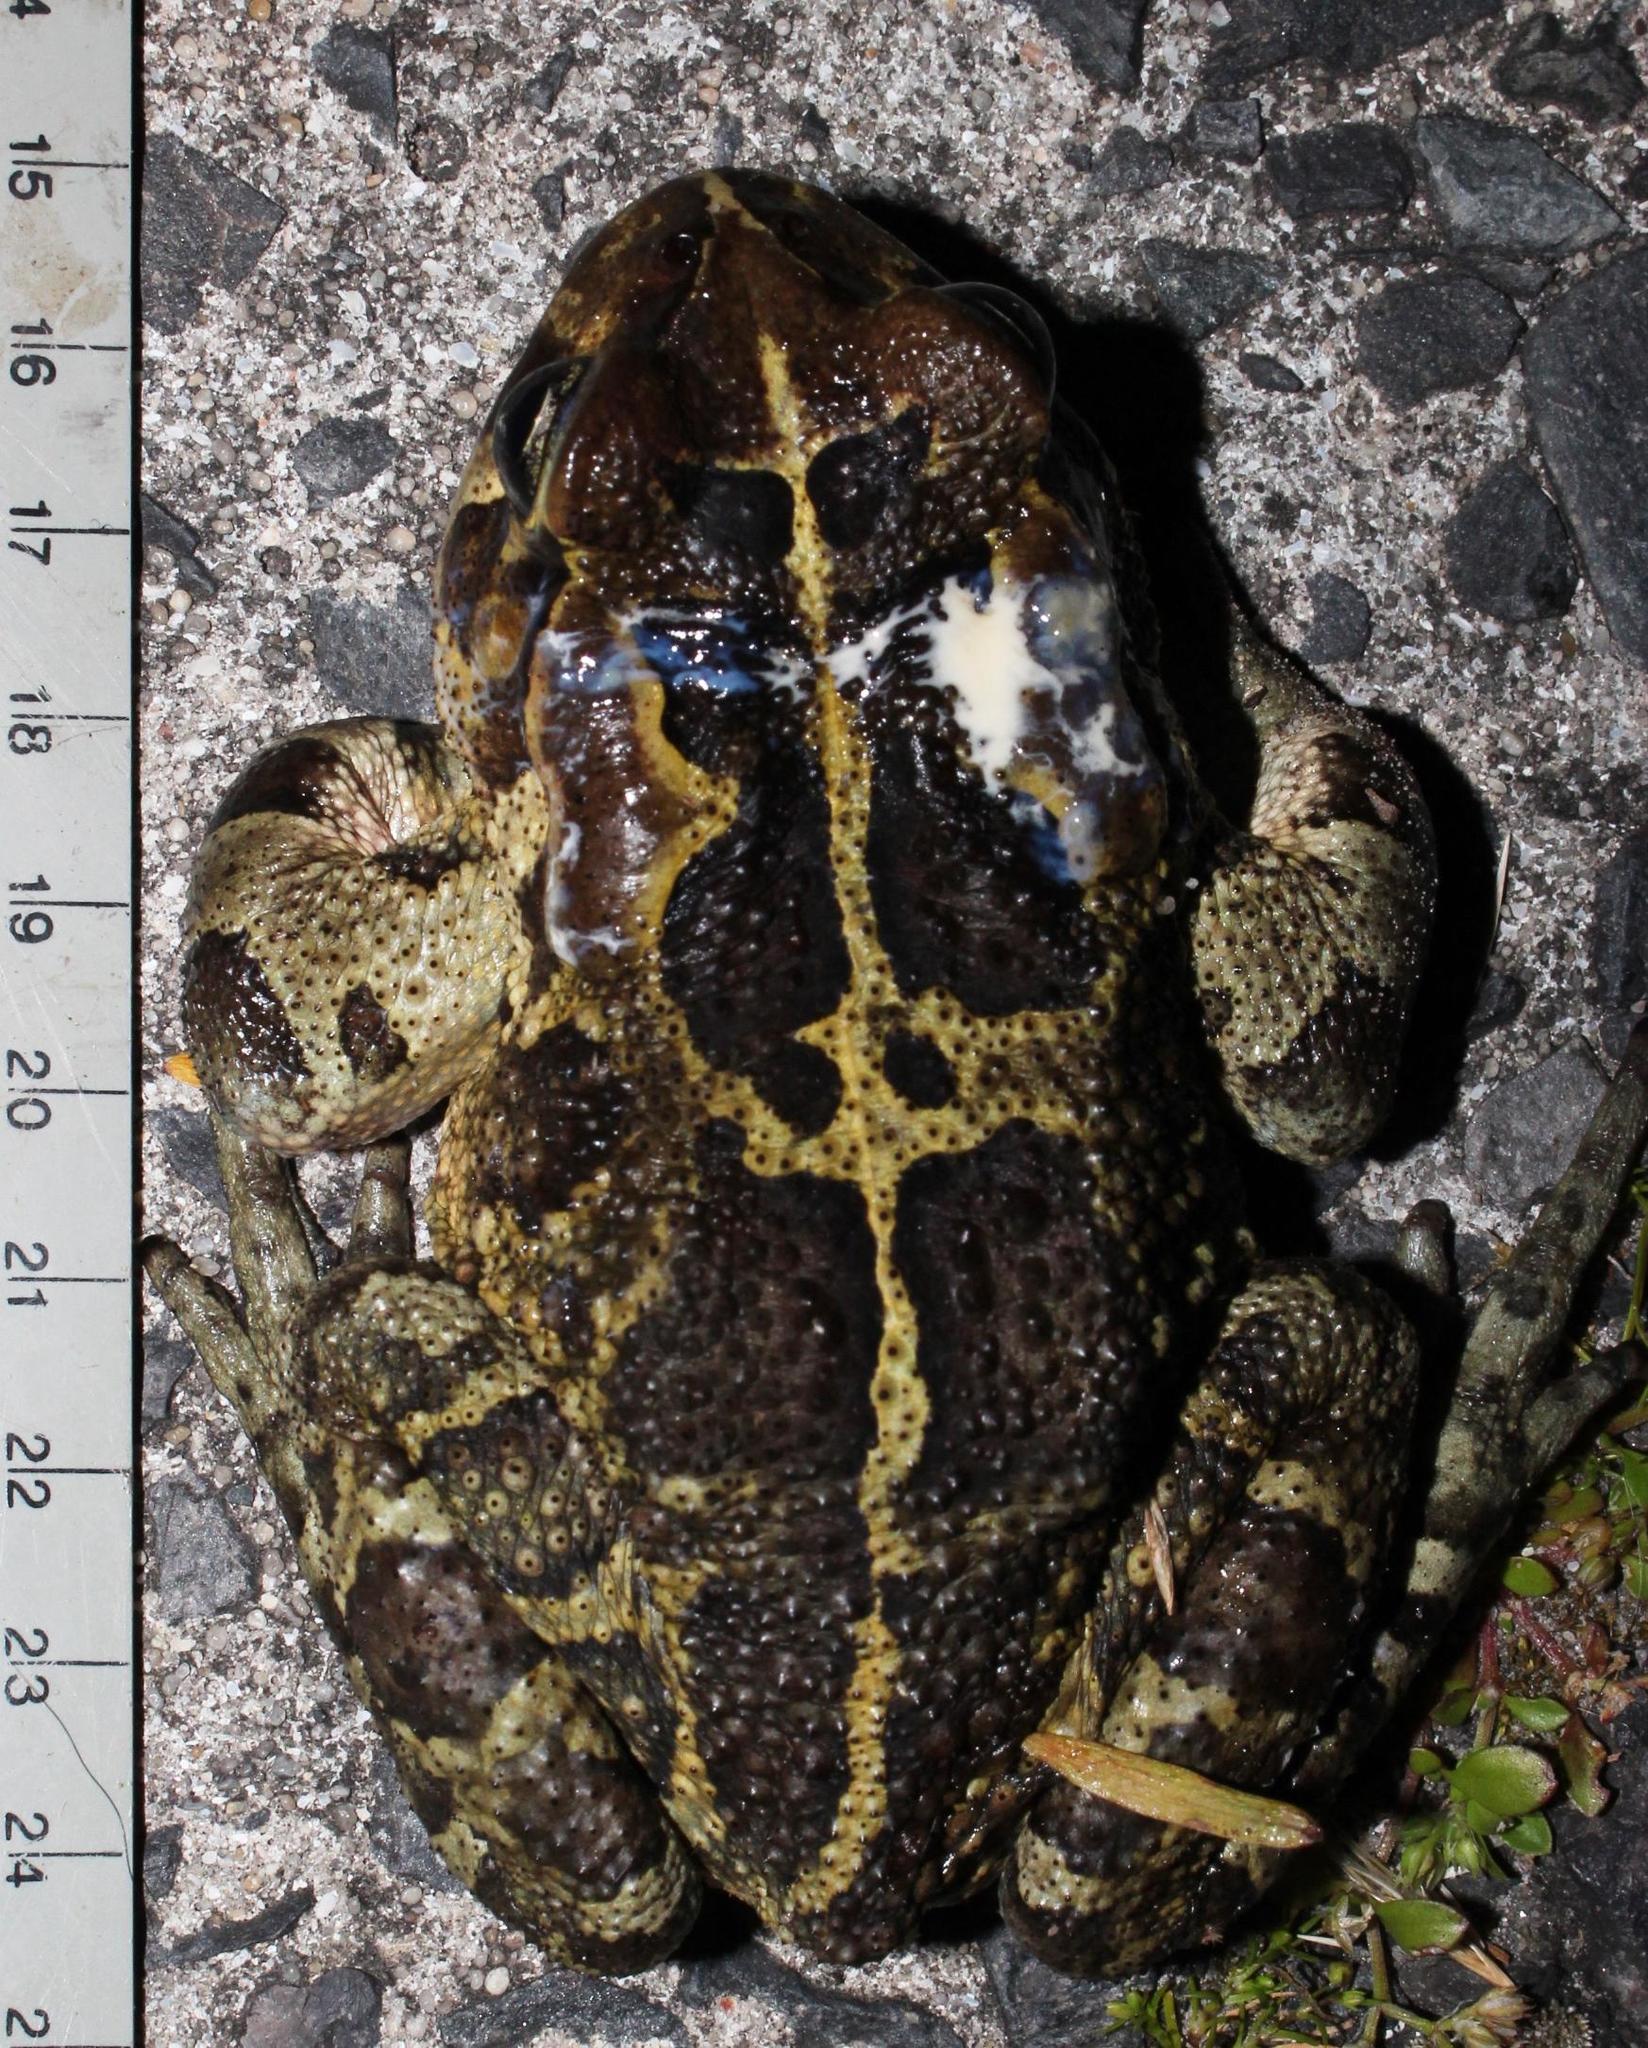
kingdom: Animalia
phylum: Chordata
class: Amphibia
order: Anura
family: Bufonidae
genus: Sclerophrys
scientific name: Sclerophrys pantherina
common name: Panther toad
